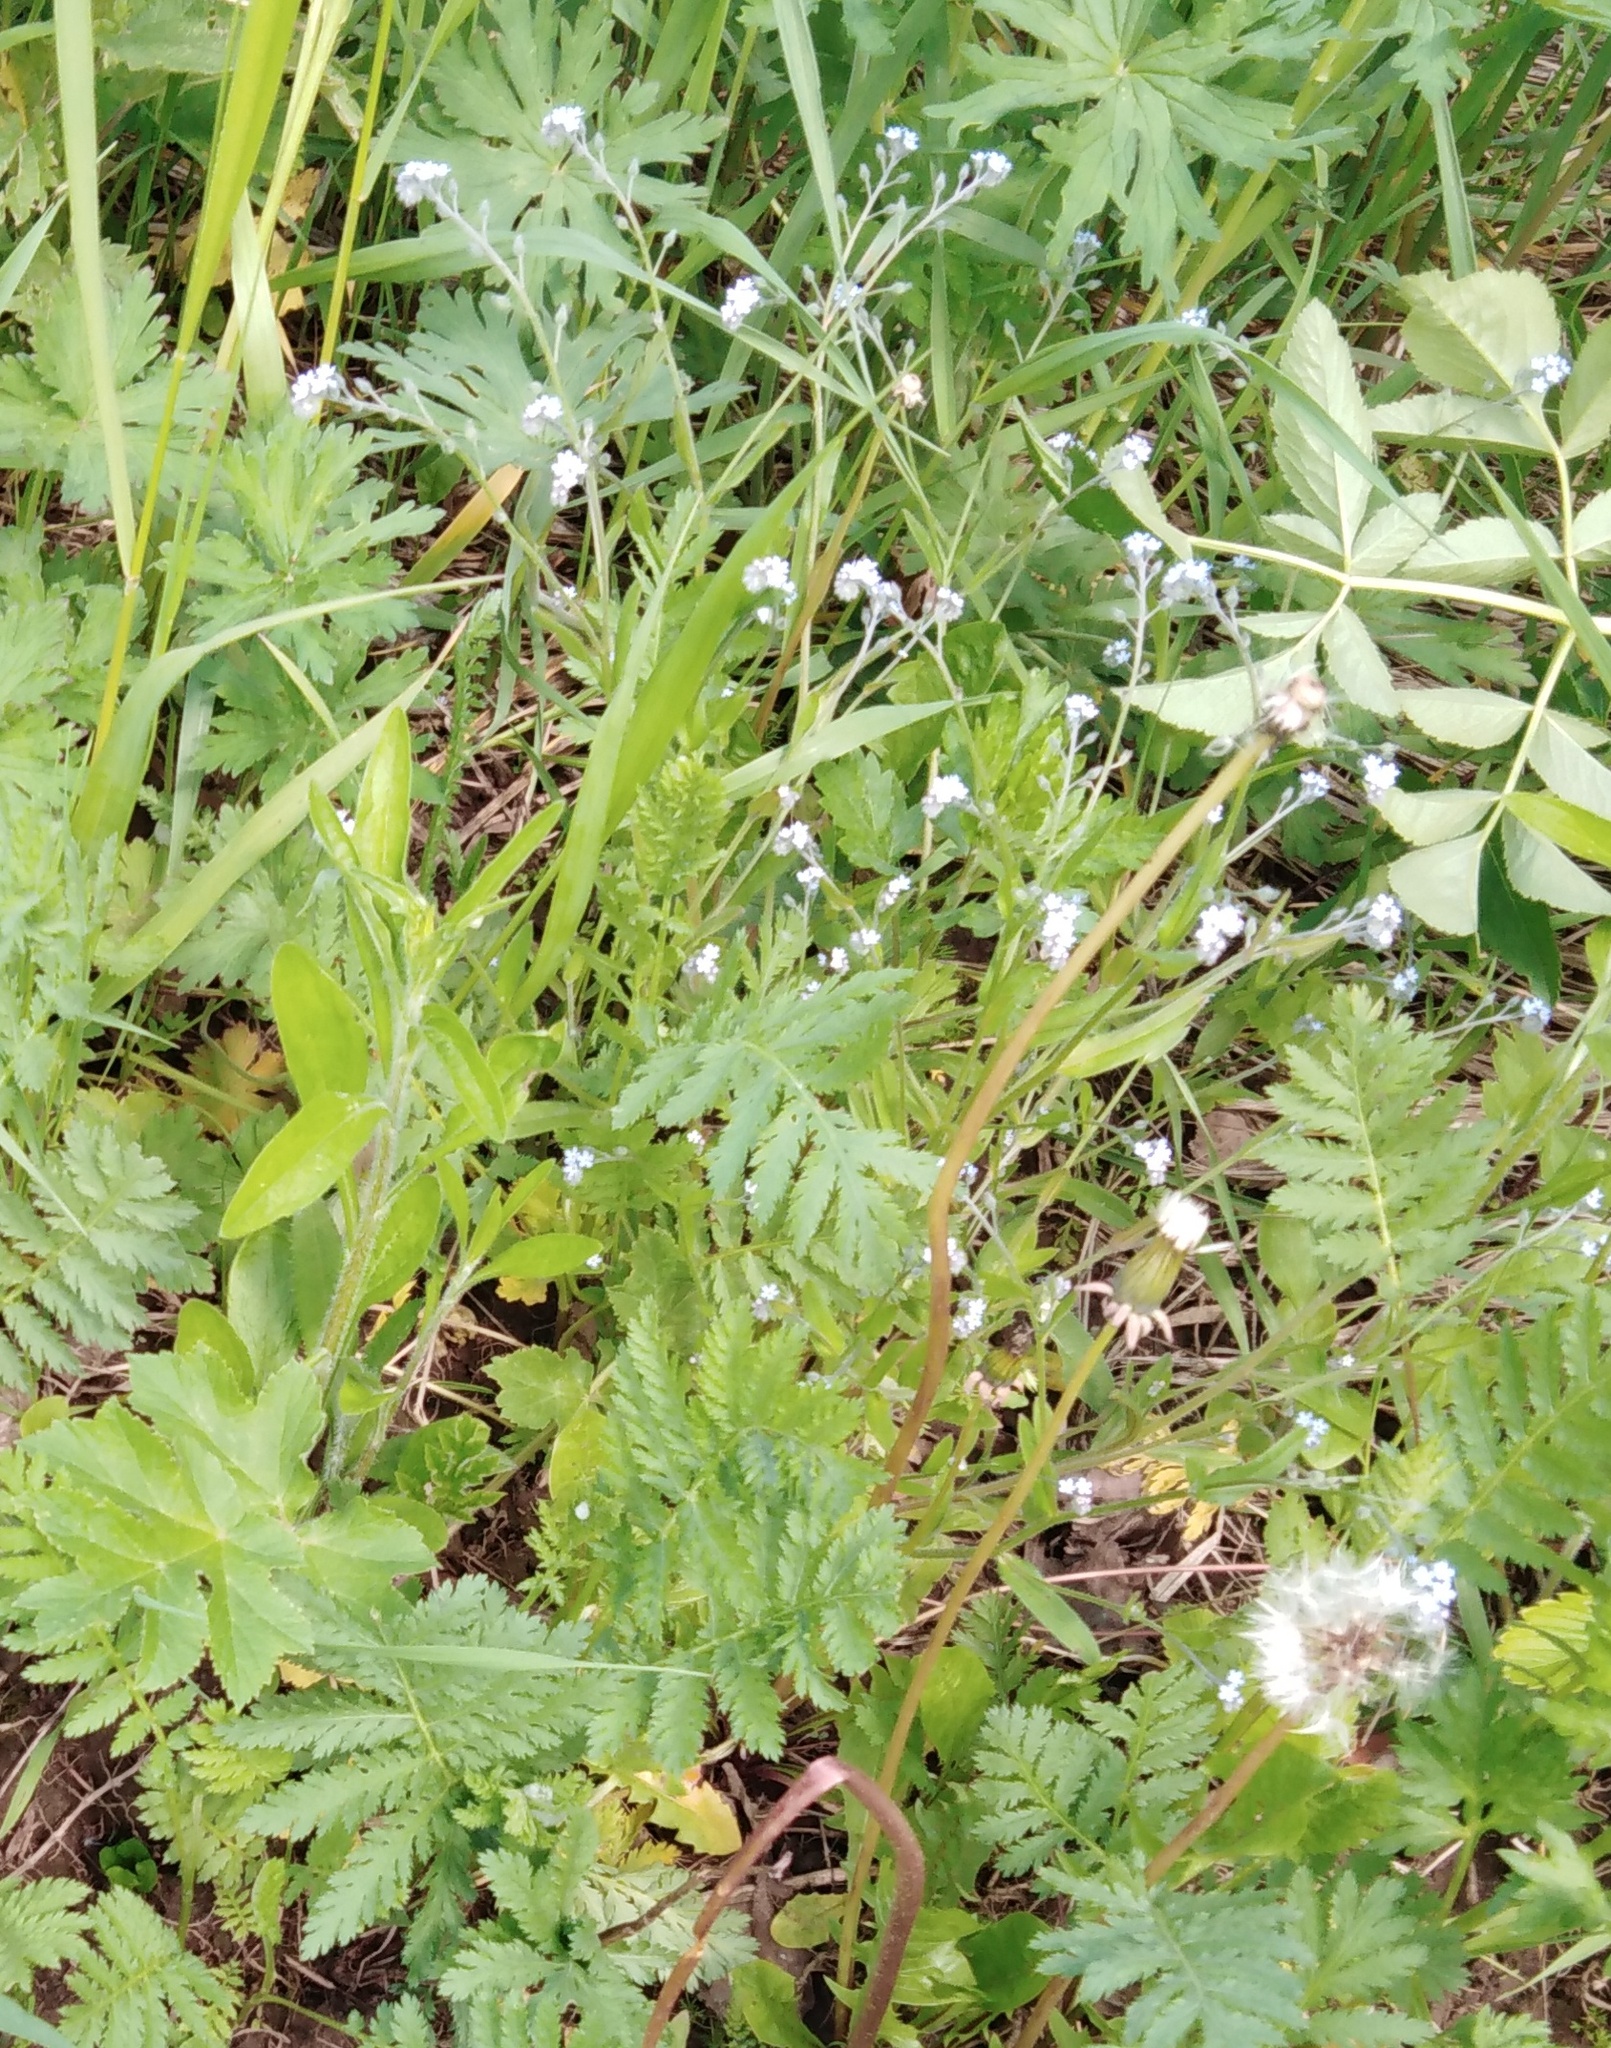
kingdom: Plantae
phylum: Tracheophyta
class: Magnoliopsida
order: Boraginales
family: Boraginaceae
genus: Myosotis
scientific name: Myosotis arvensis
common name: Field forget-me-not
